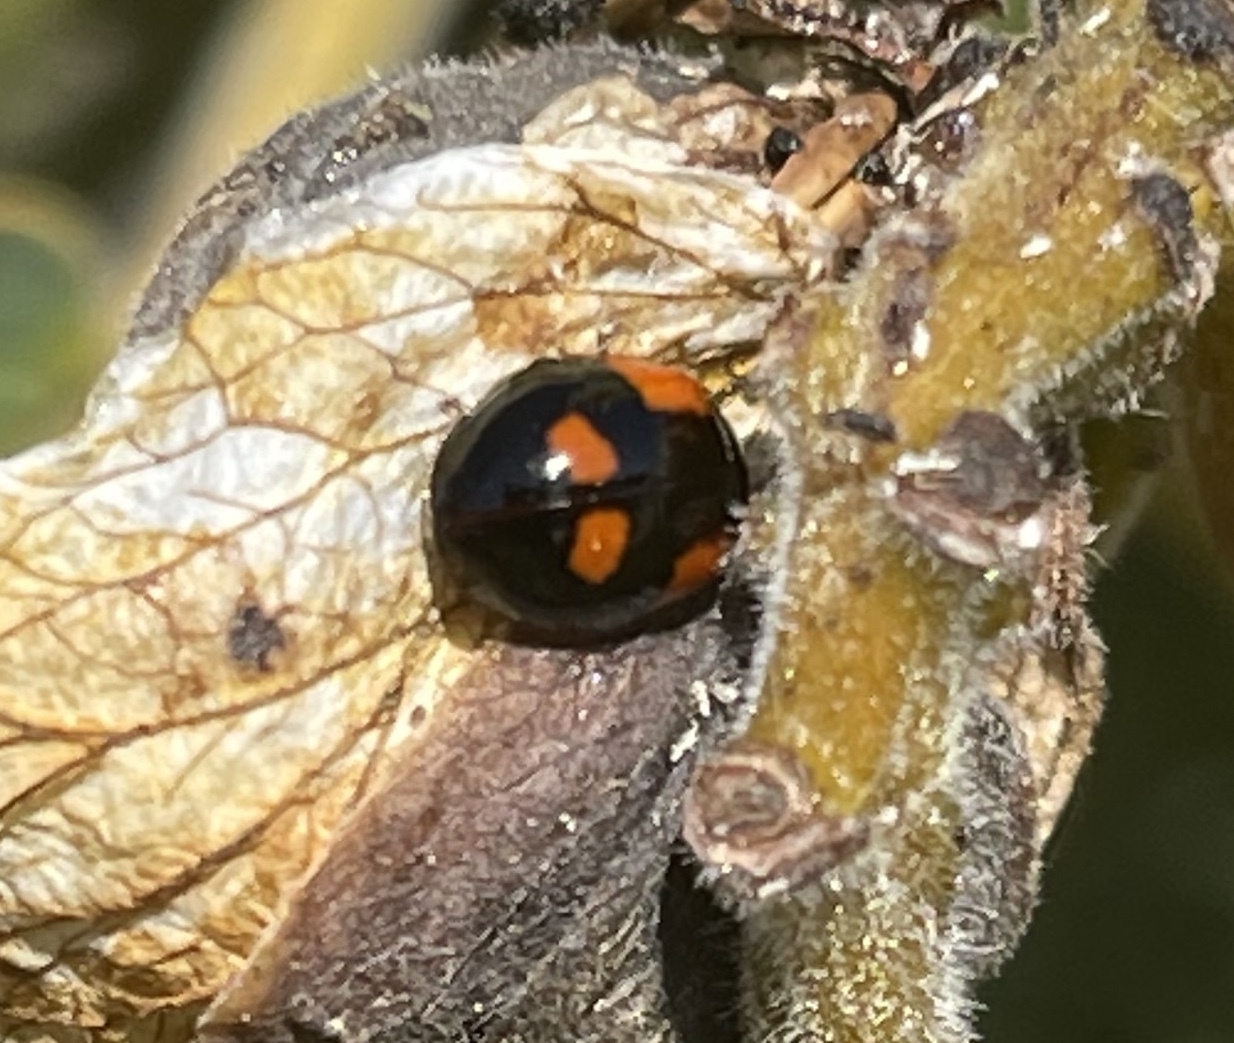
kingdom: Animalia
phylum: Arthropoda
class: Insecta
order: Coleoptera
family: Coccinellidae
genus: Adalia
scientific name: Adalia bipunctata
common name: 2-spot ladybird
